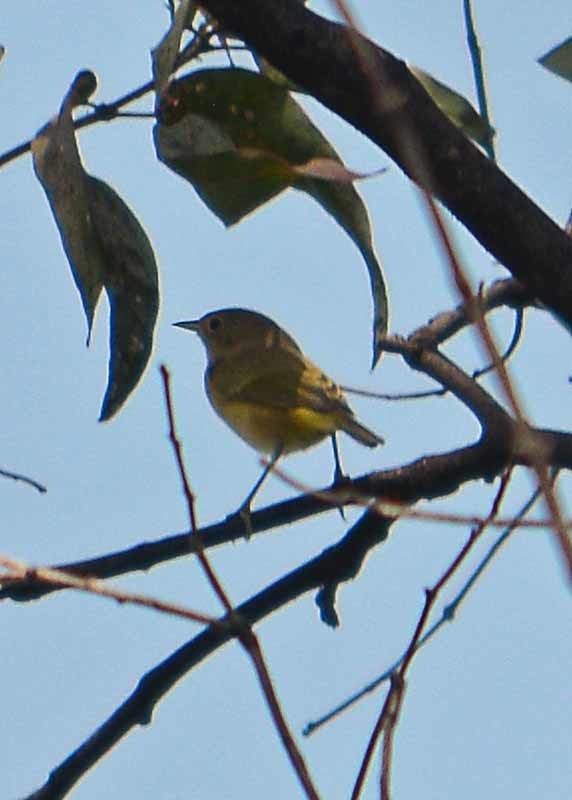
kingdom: Animalia
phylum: Chordata
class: Aves
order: Passeriformes
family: Parulidae
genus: Leiothlypis
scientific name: Leiothlypis celata
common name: Orange-crowned warbler
